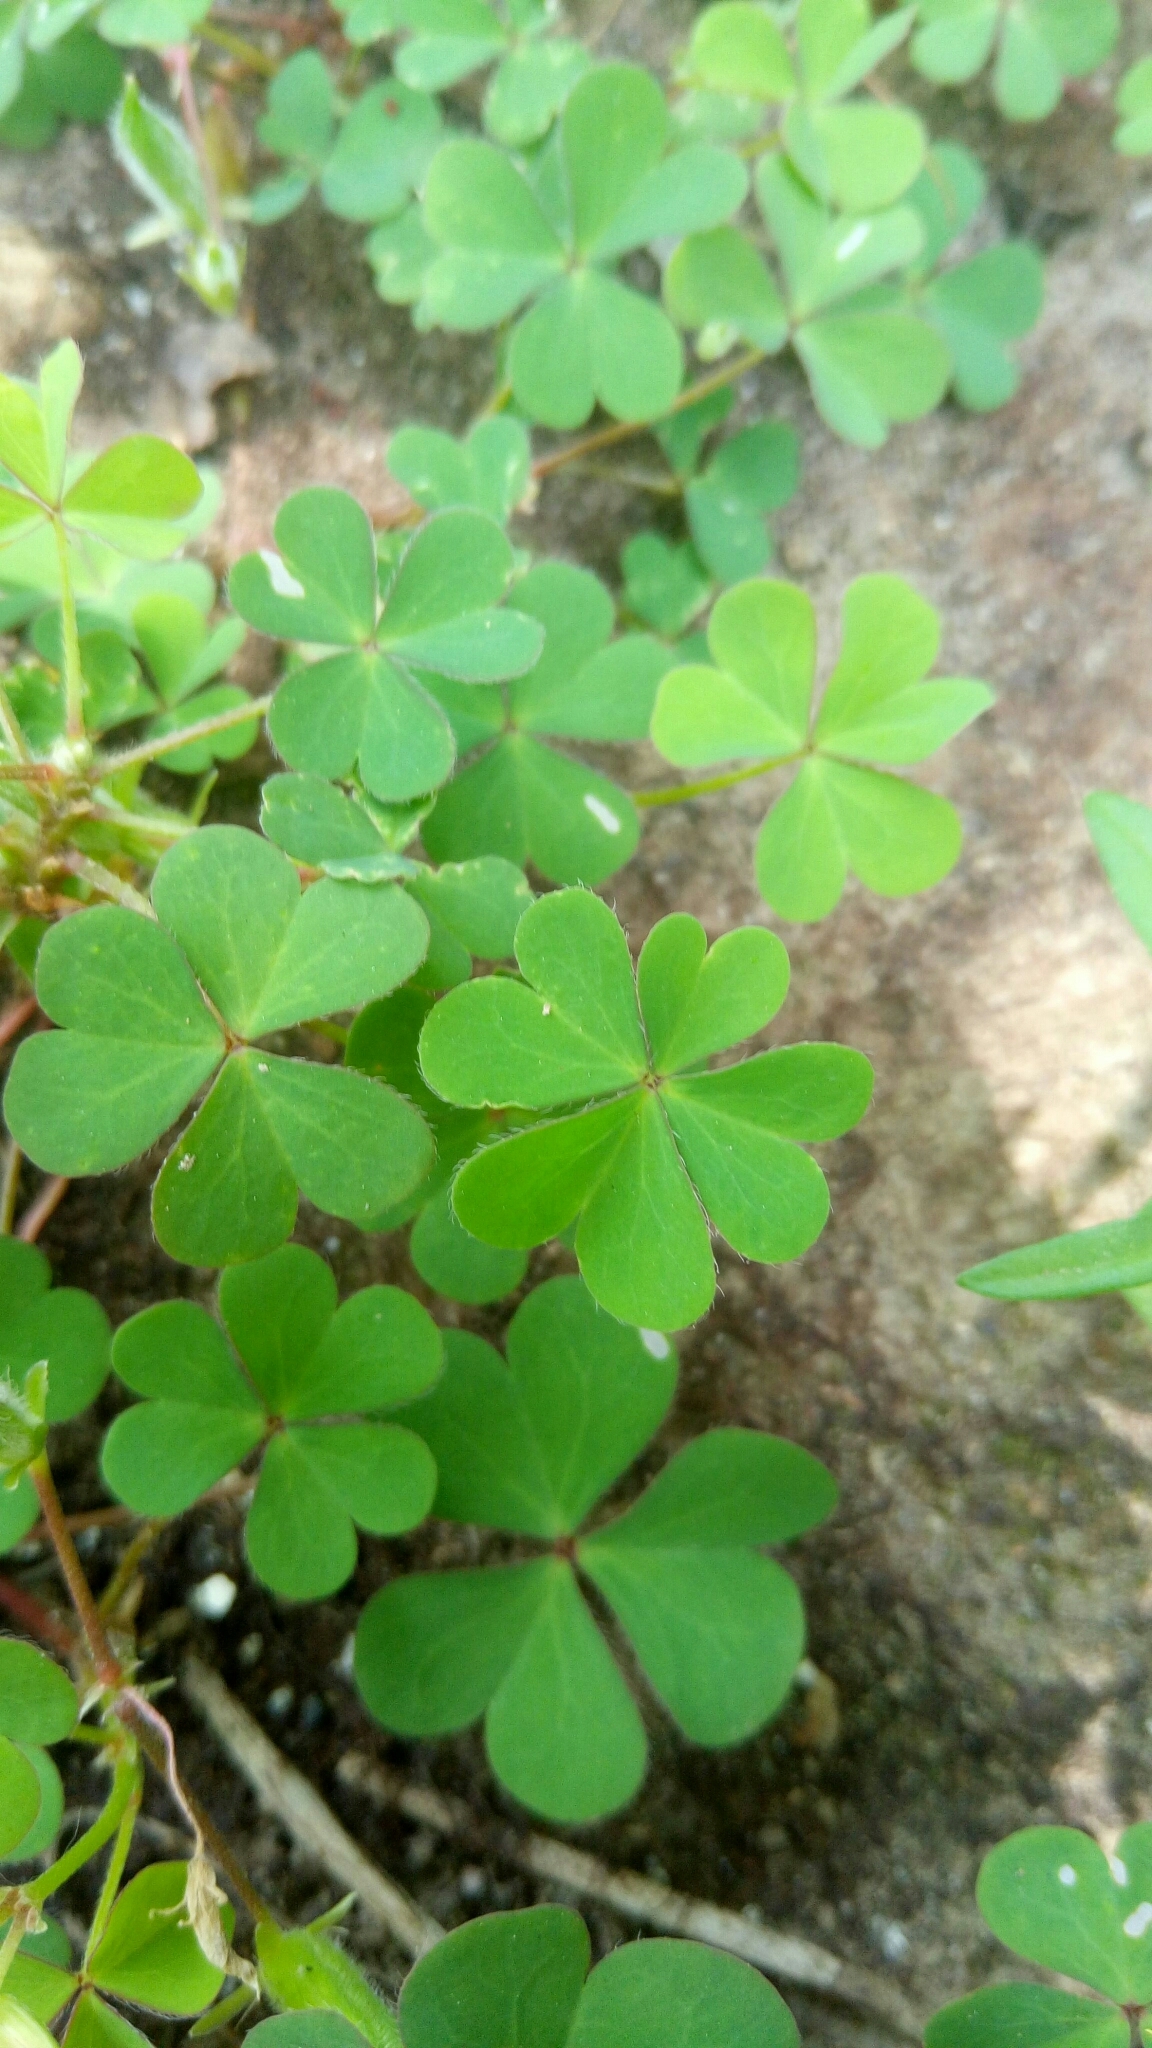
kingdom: Plantae
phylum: Tracheophyta
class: Magnoliopsida
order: Oxalidales
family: Oxalidaceae
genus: Oxalis
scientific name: Oxalis corniculata
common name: Procumbent yellow-sorrel
